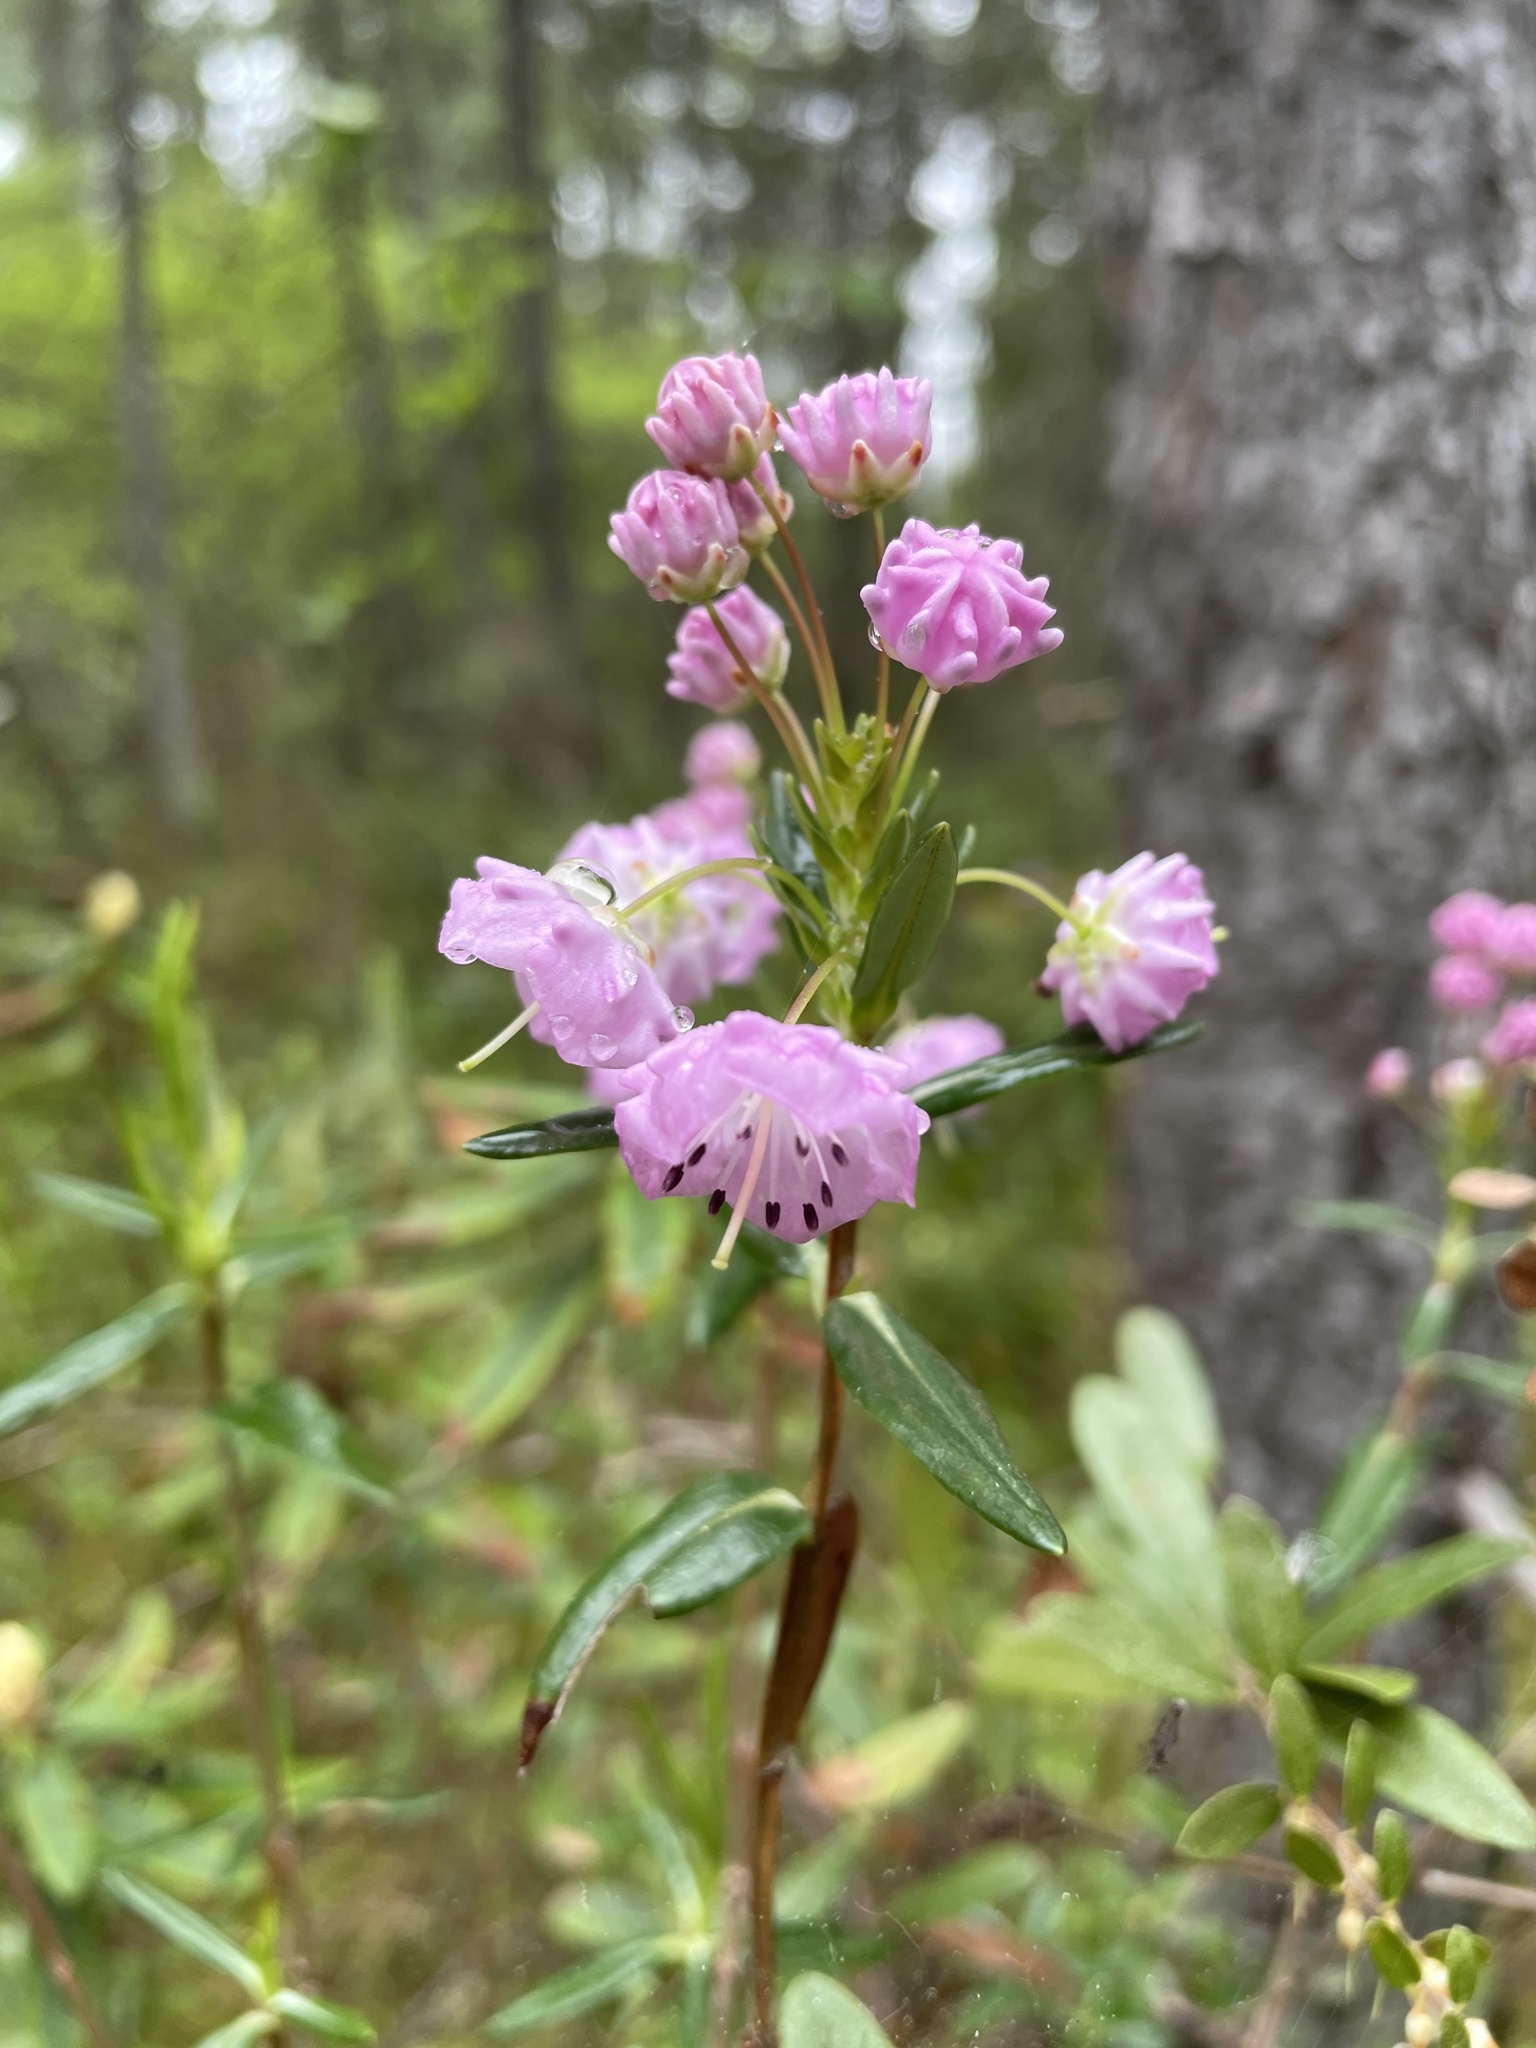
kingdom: Plantae
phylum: Tracheophyta
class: Magnoliopsida
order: Ericales
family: Ericaceae
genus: Kalmia
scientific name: Kalmia polifolia
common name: Bog-laurel
